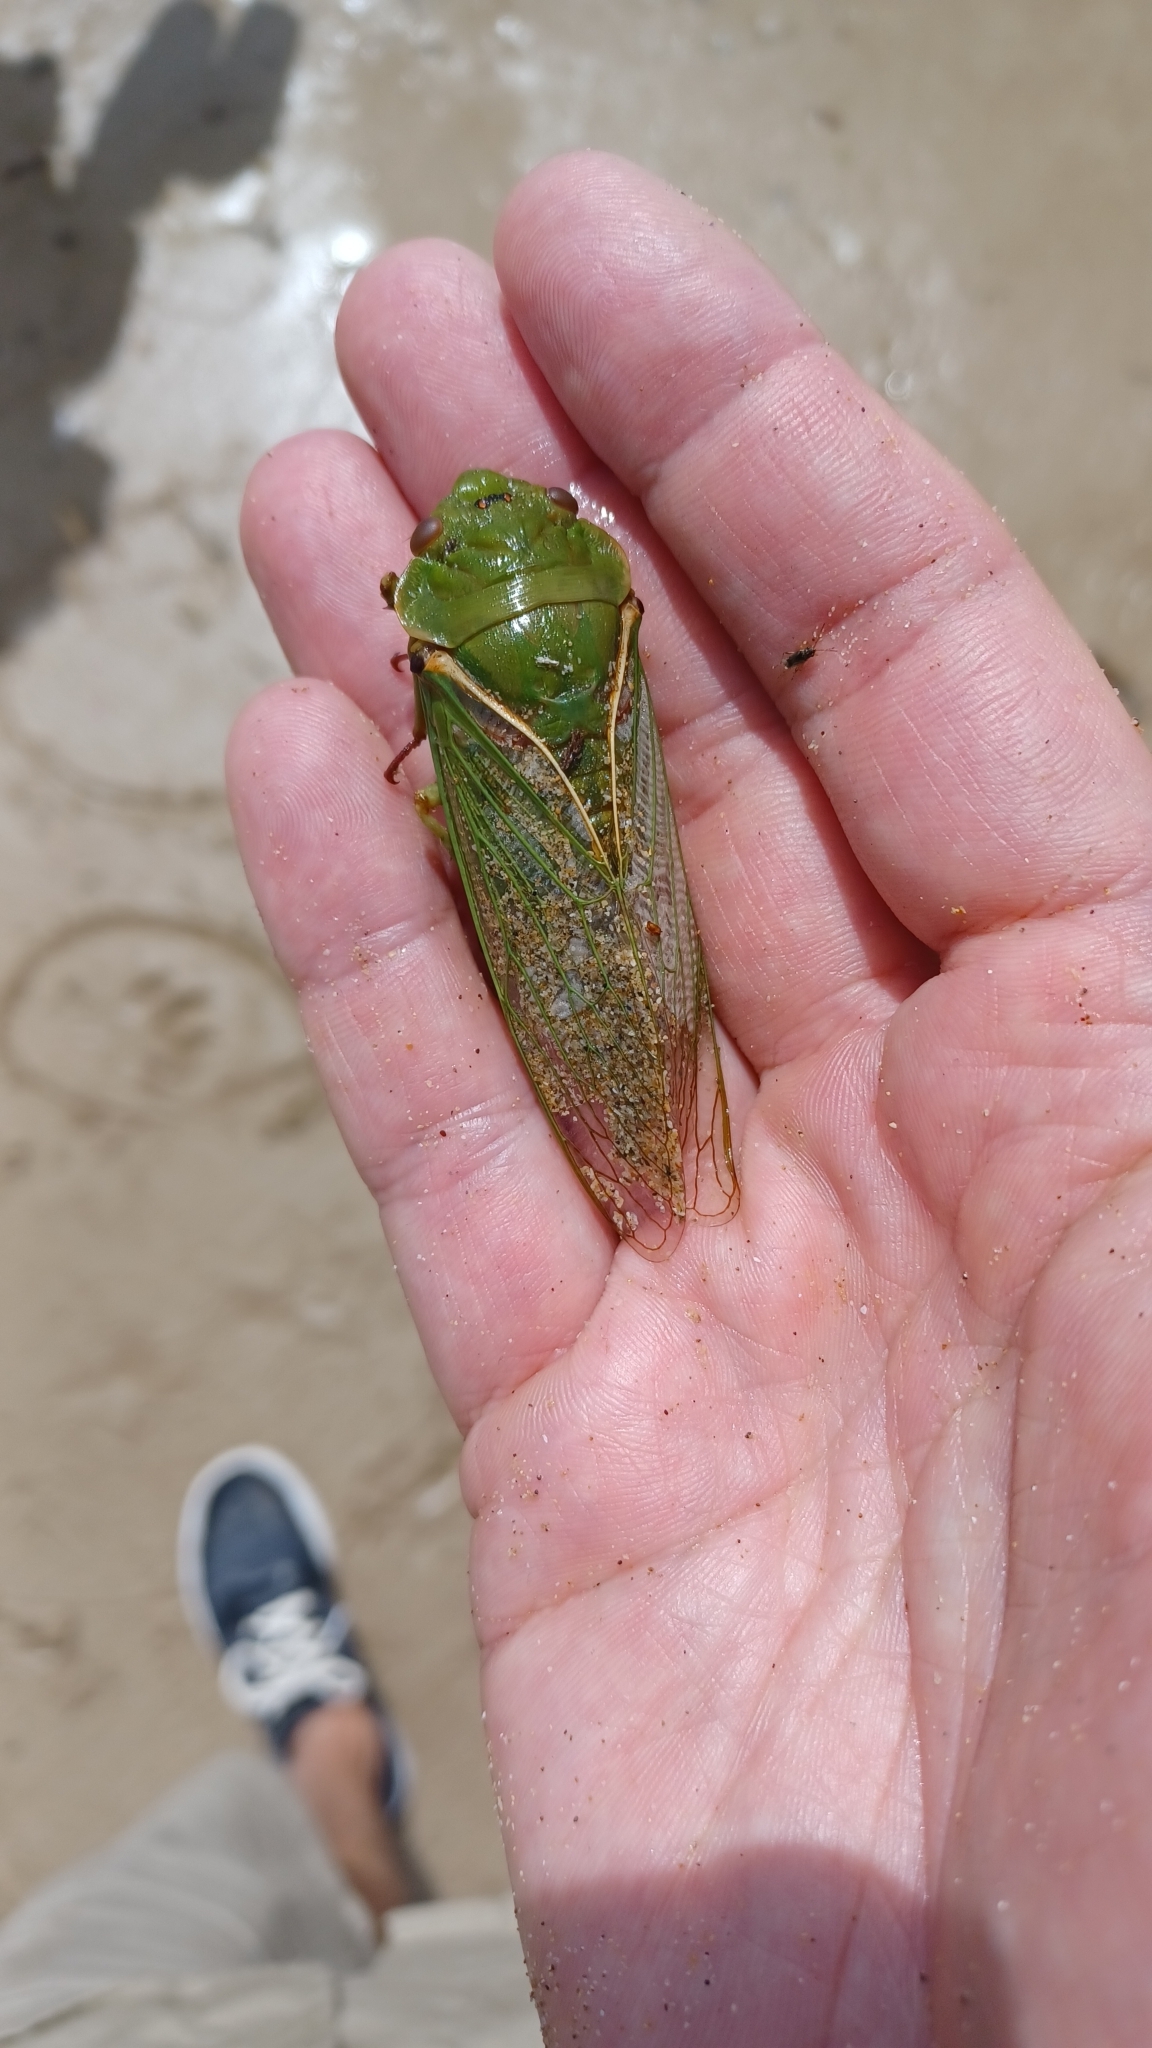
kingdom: Animalia
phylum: Arthropoda
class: Insecta
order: Hemiptera
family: Cicadidae
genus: Cyclochila
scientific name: Cyclochila australasiae
